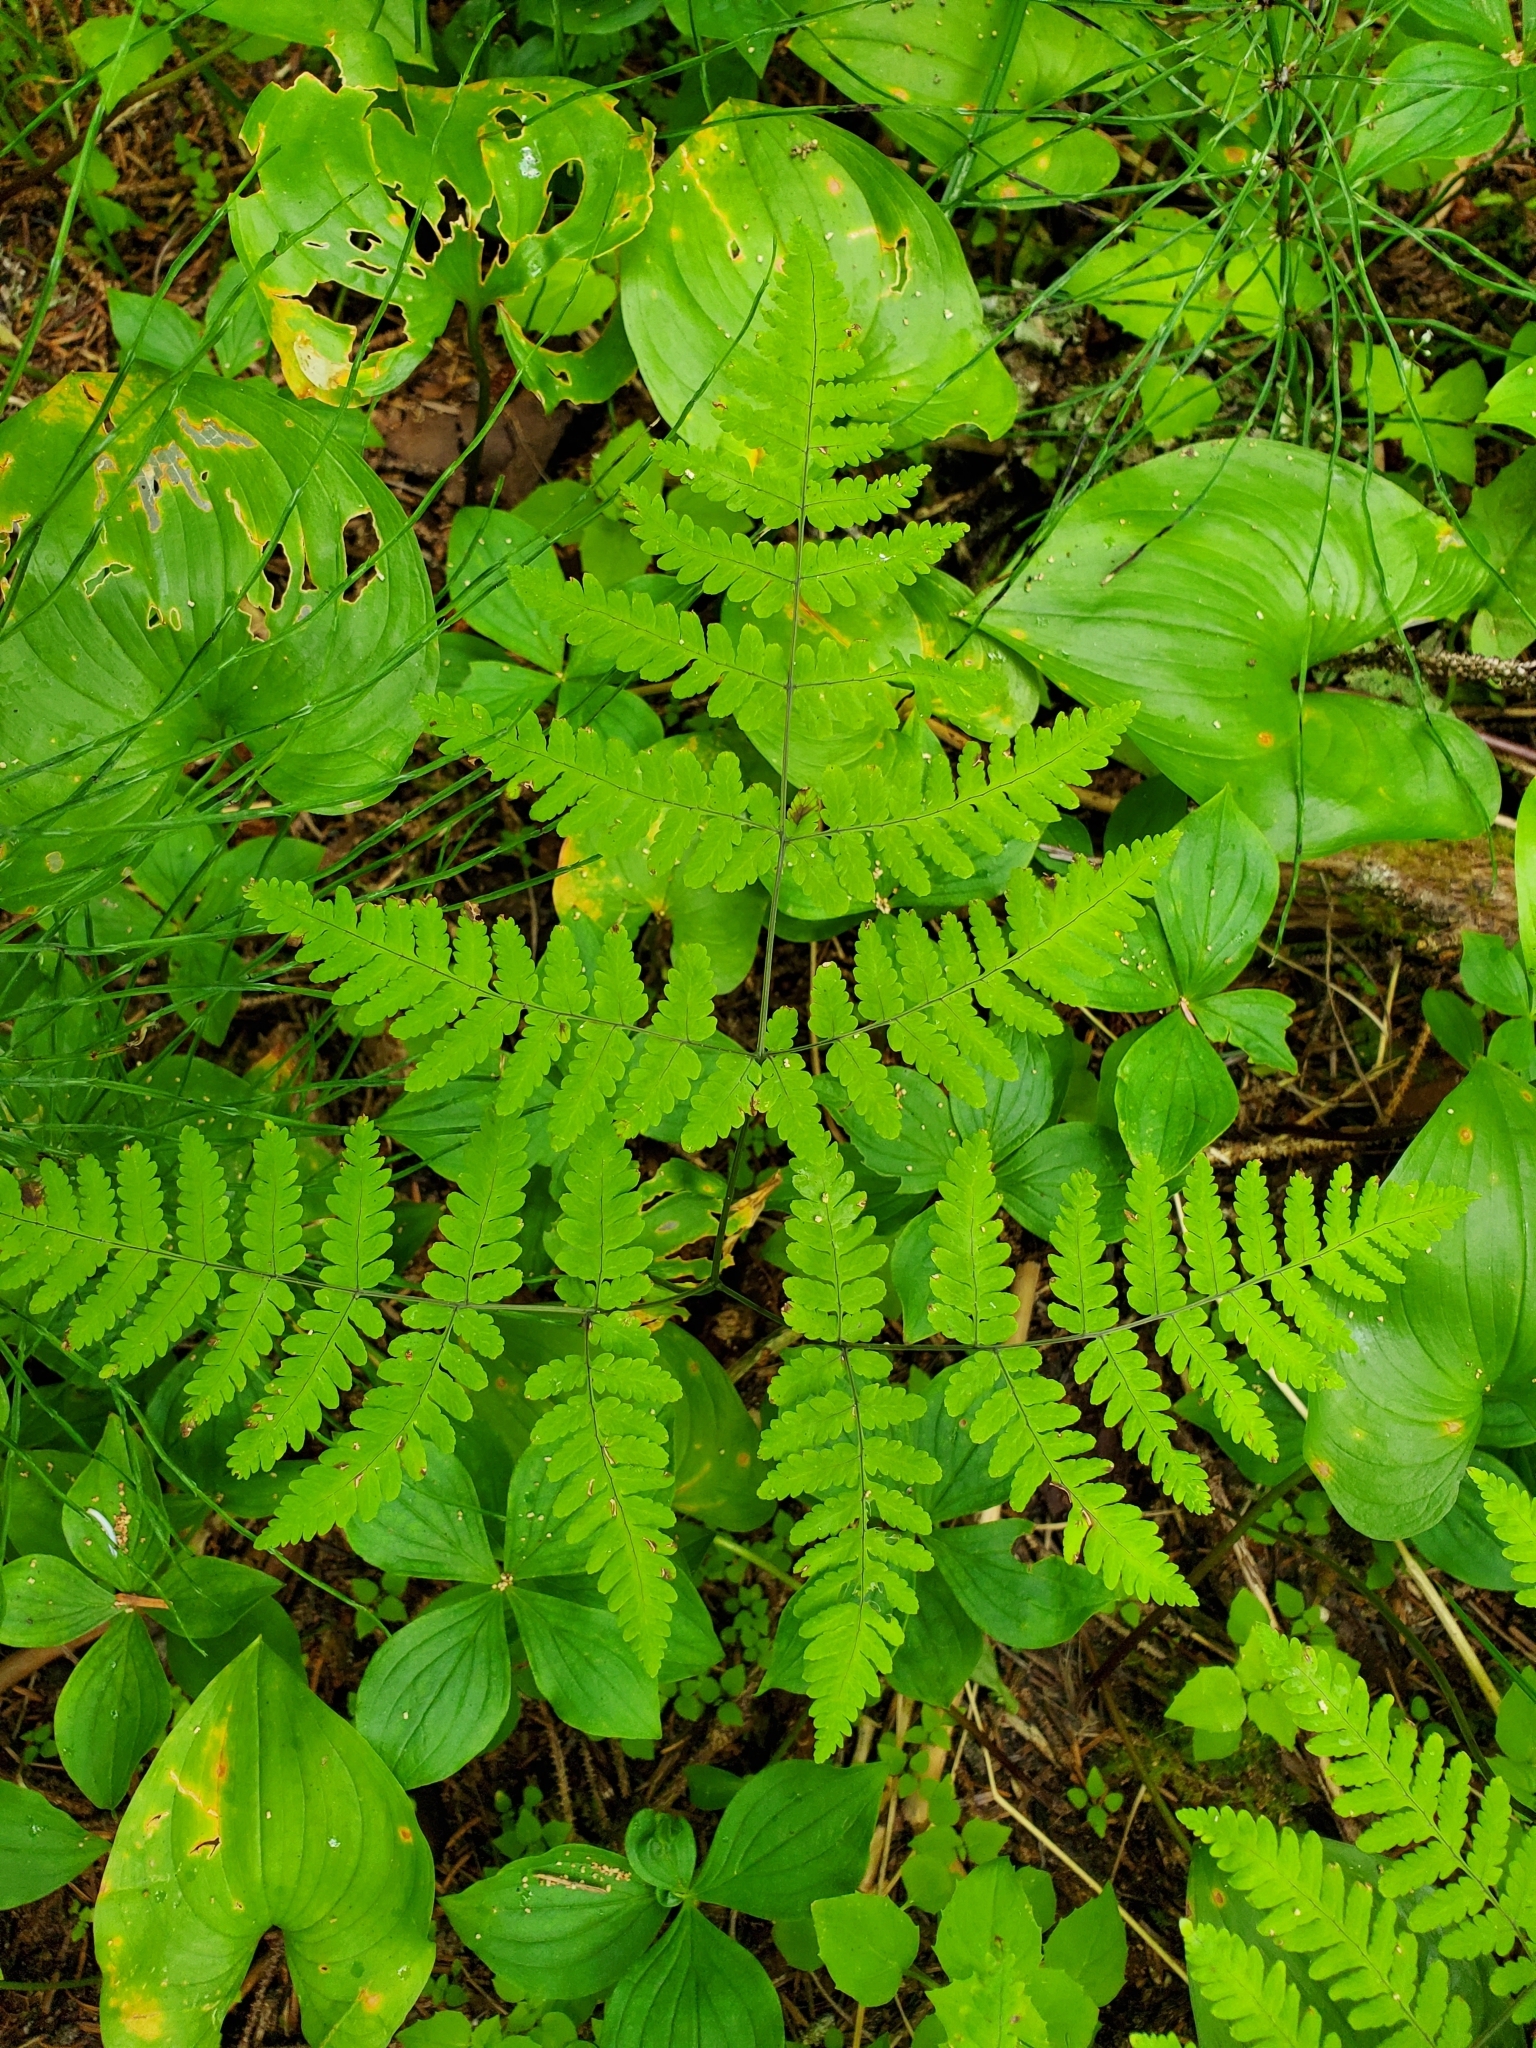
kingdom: Plantae
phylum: Tracheophyta
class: Polypodiopsida
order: Polypodiales
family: Cystopteridaceae
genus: Gymnocarpium
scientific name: Gymnocarpium disjunctum
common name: Western oak fern
